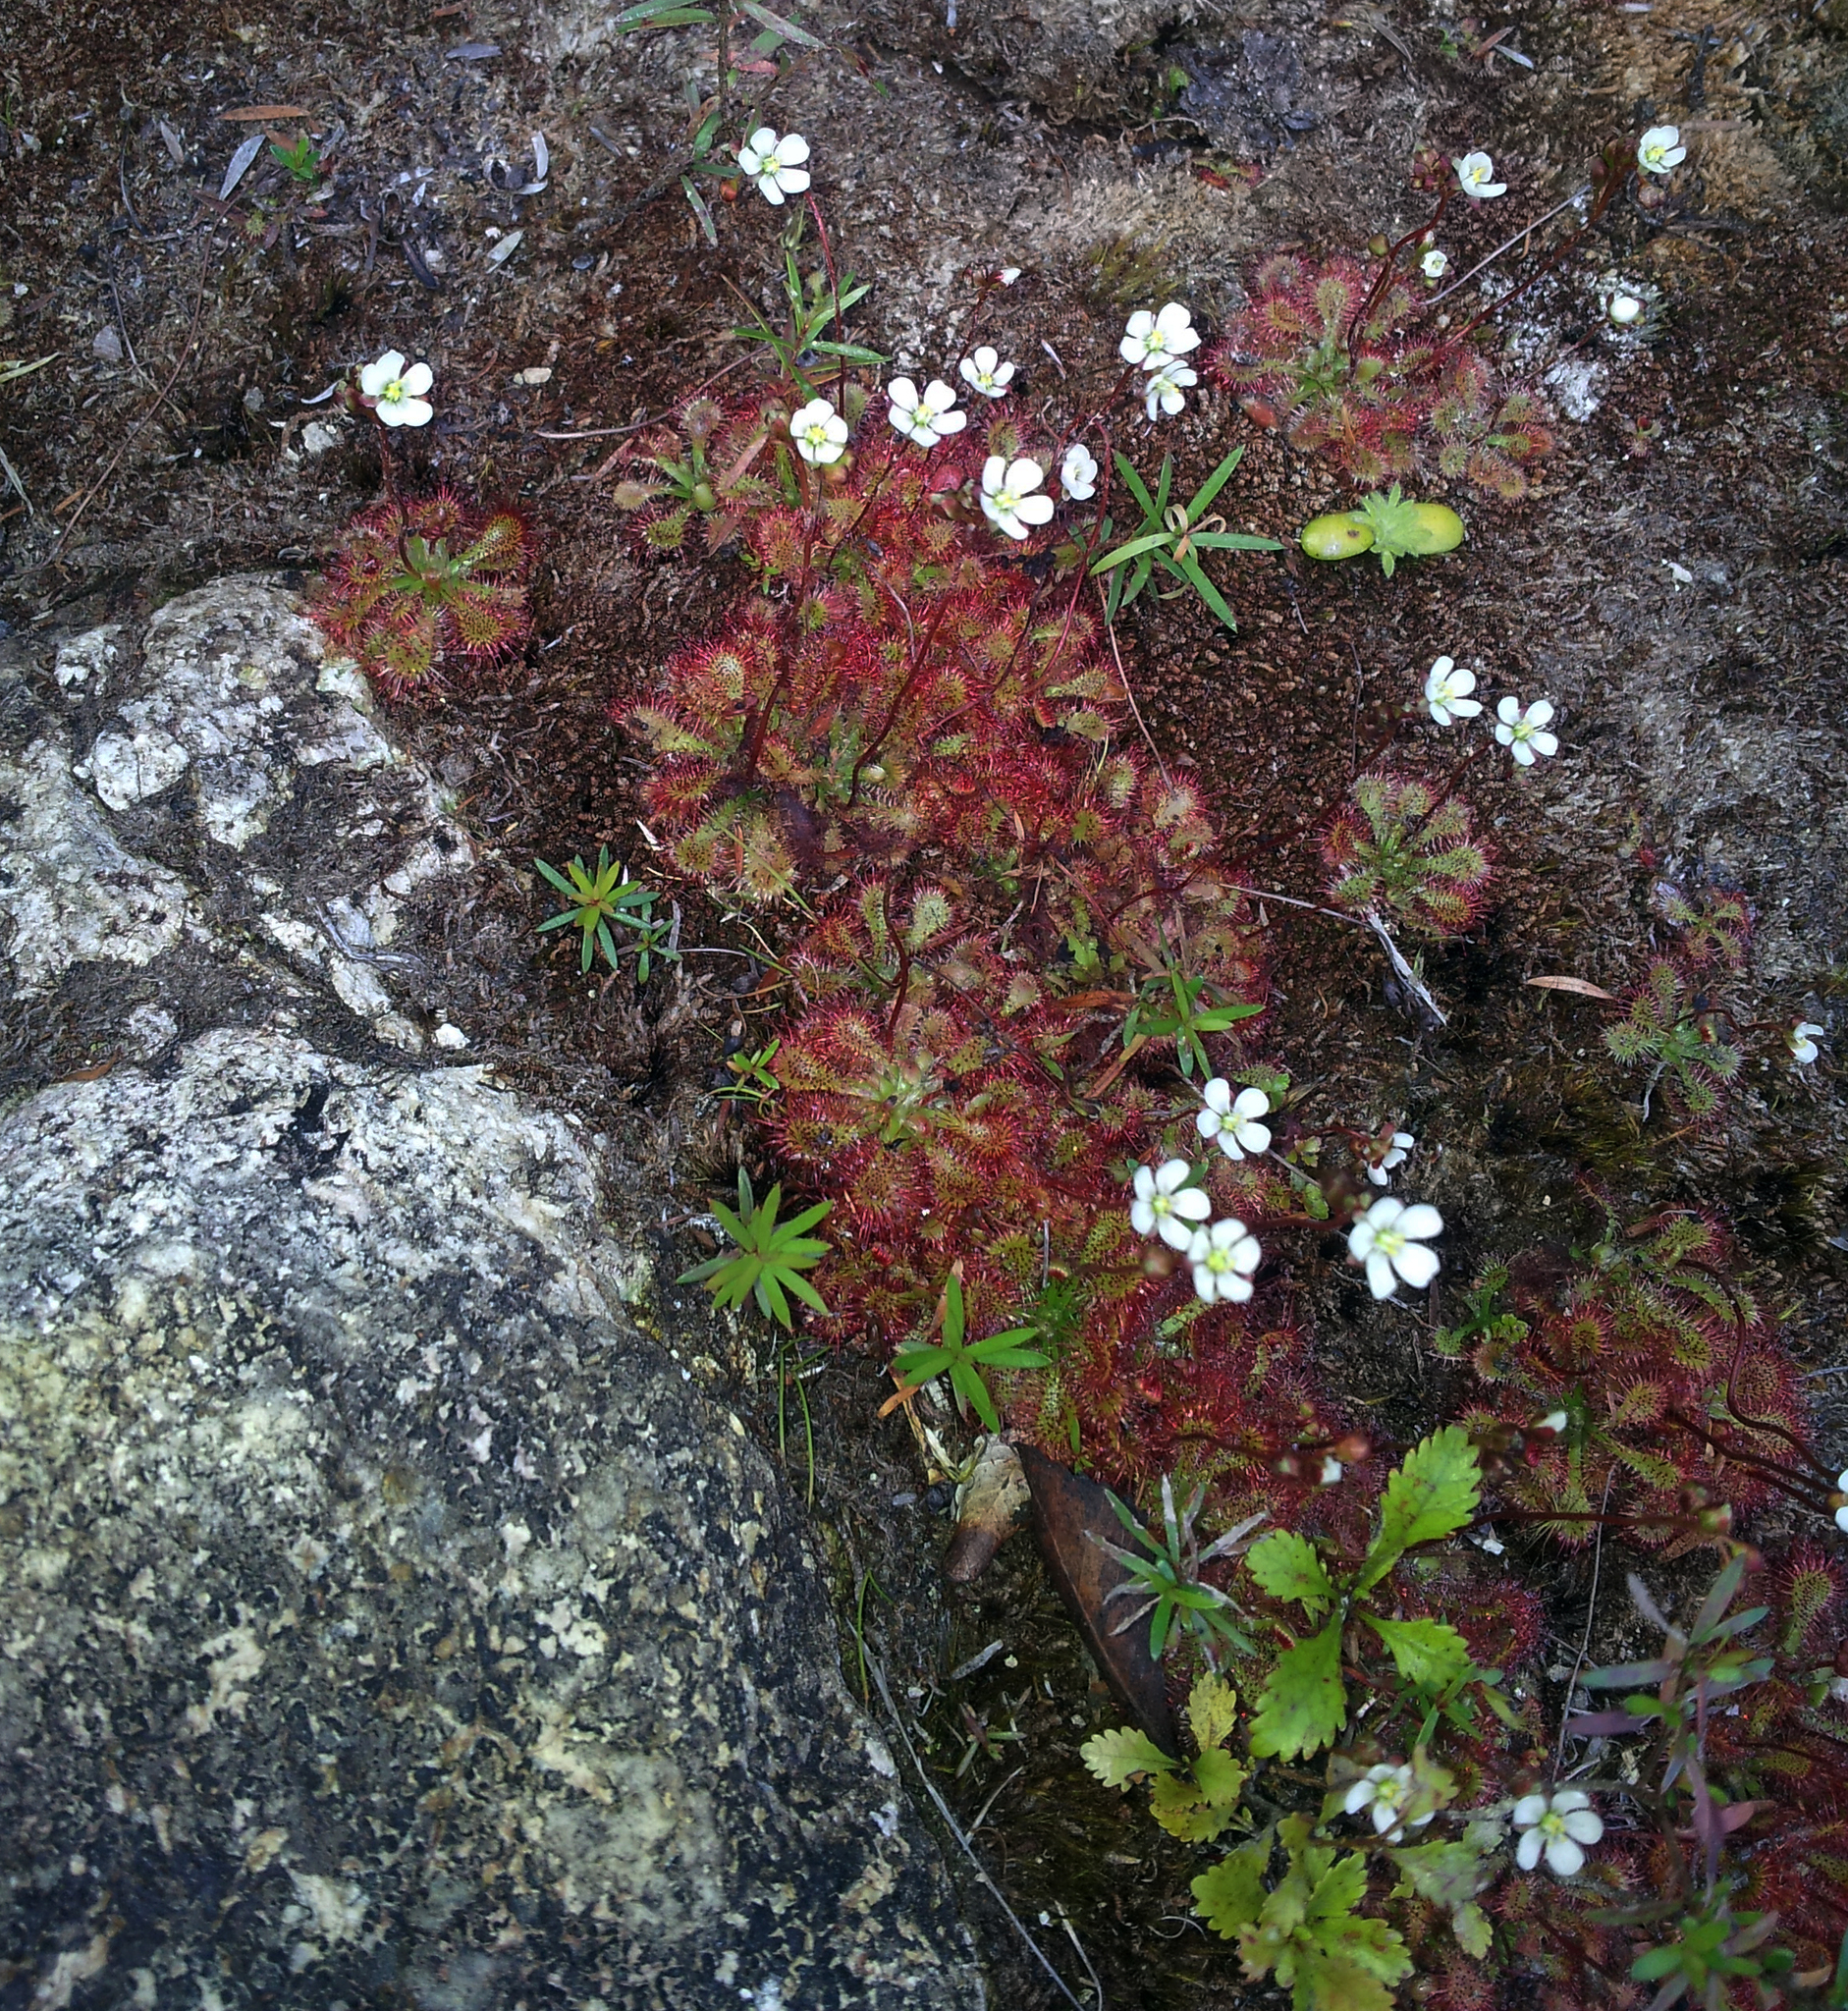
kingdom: Plantae
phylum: Tracheophyta
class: Magnoliopsida
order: Caryophyllales
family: Droseraceae
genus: Drosera
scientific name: Drosera spatulata
